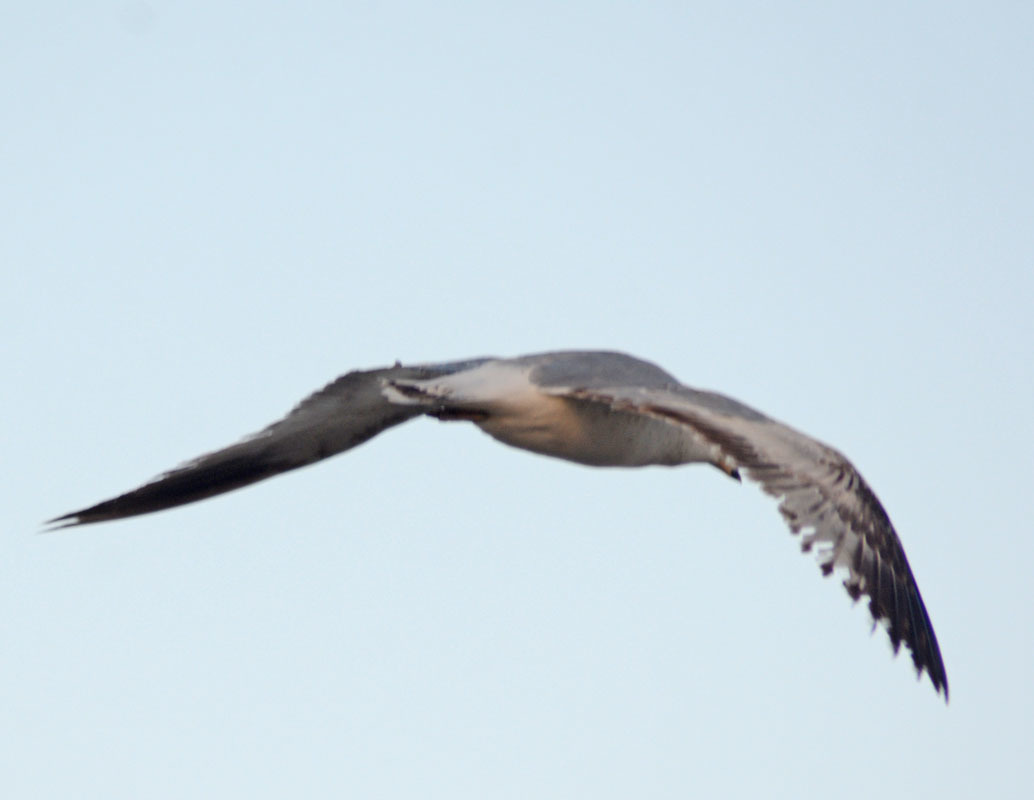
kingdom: Animalia
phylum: Chordata
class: Aves
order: Charadriiformes
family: Laridae
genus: Larus
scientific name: Larus delawarensis
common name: Ring-billed gull
